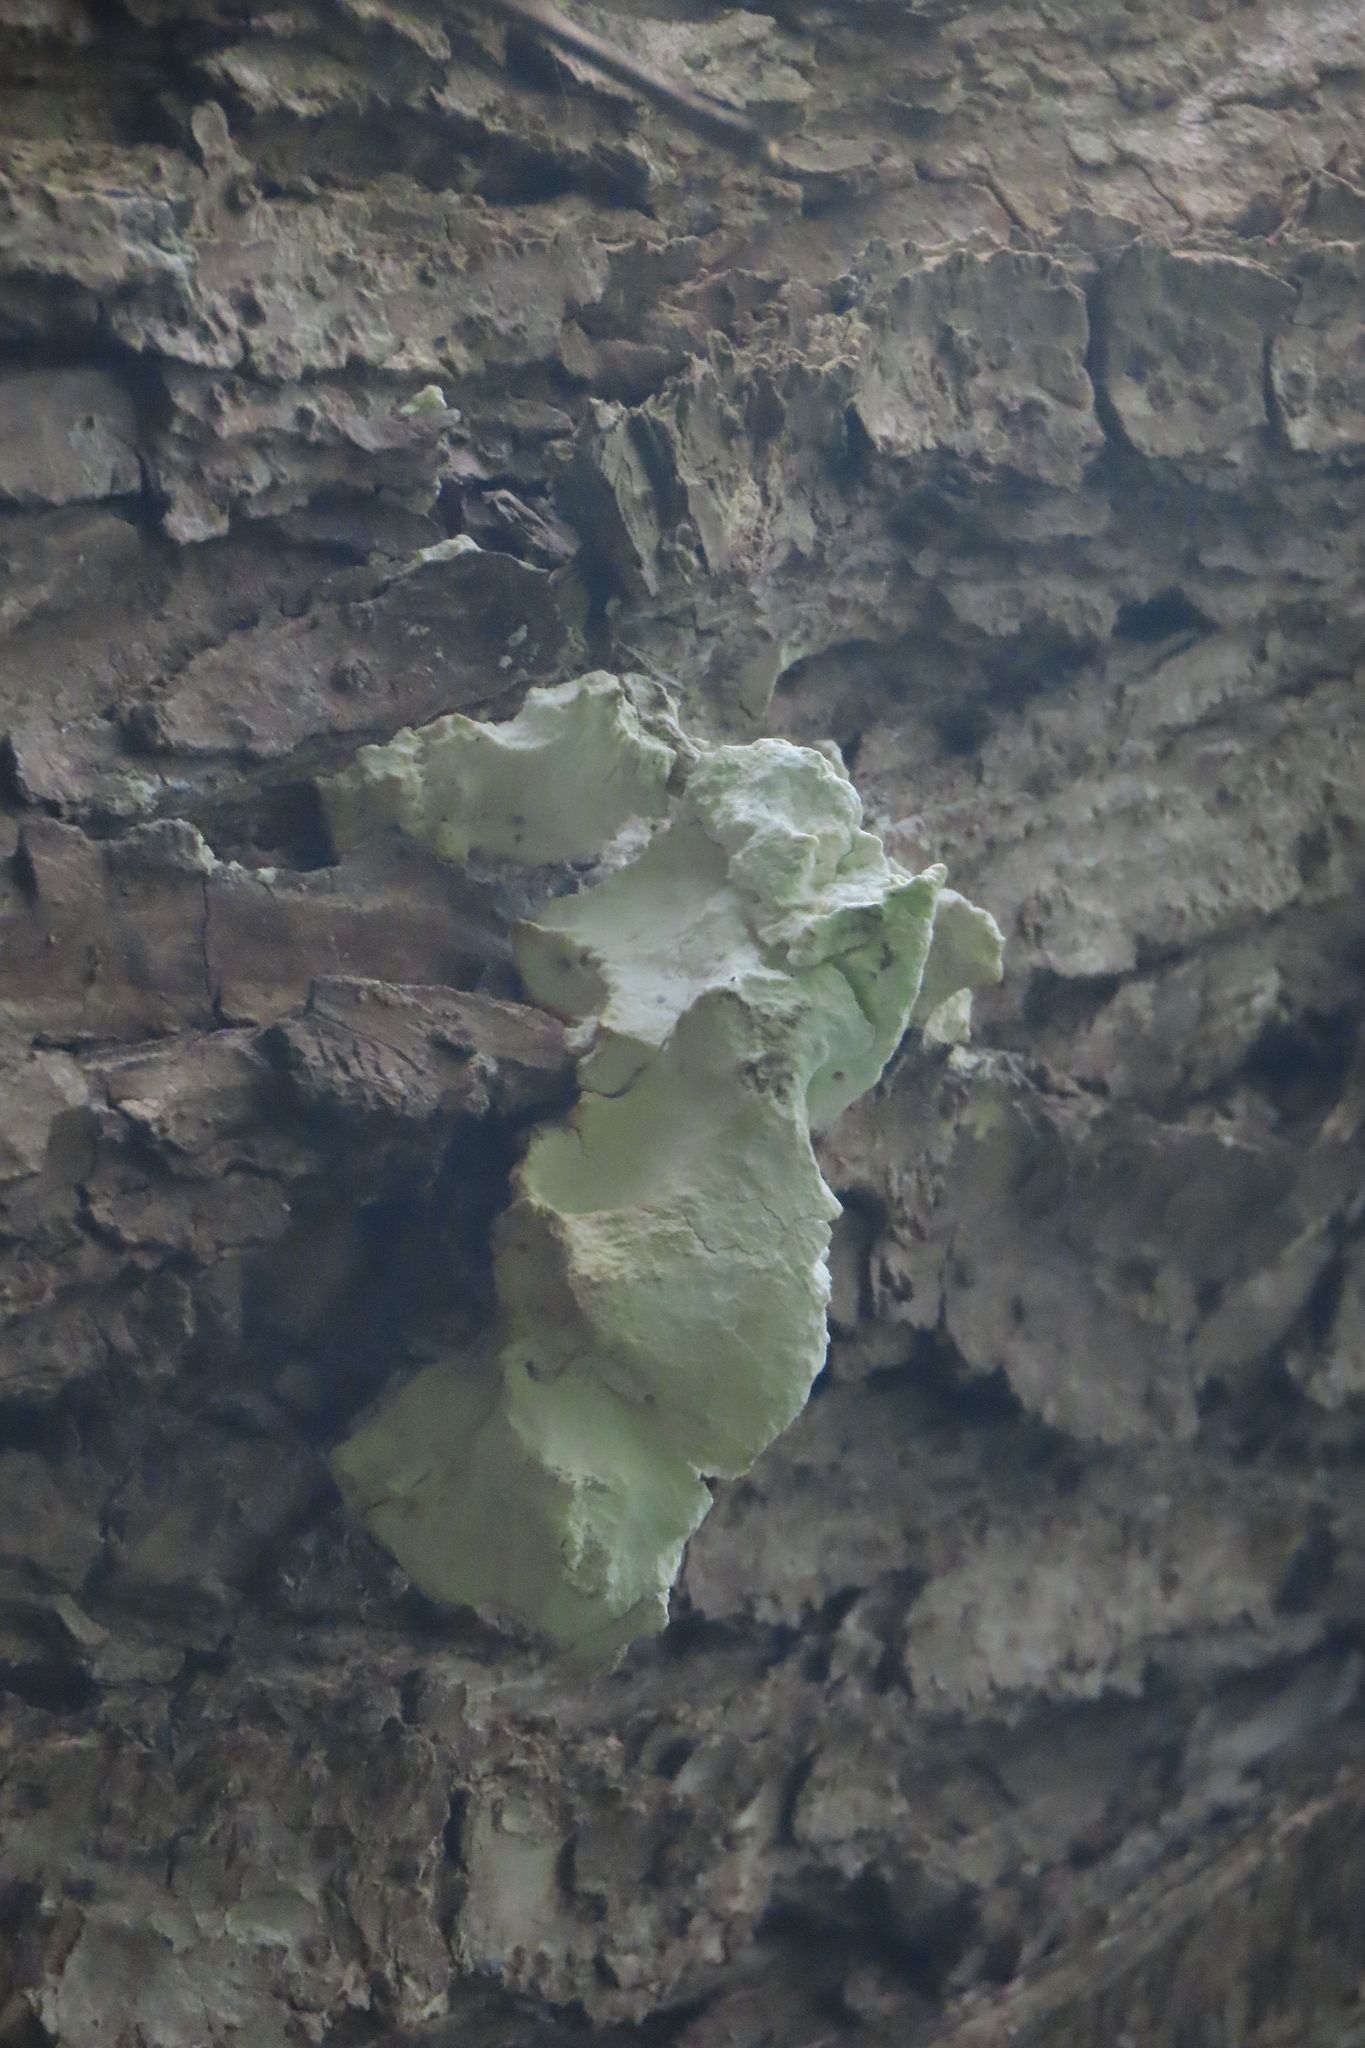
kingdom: Fungi
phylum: Basidiomycota
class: Agaricomycetes
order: Polyporales
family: Laetiporaceae
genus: Laetiporus
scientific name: Laetiporus sulphureus
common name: Chicken of the woods
